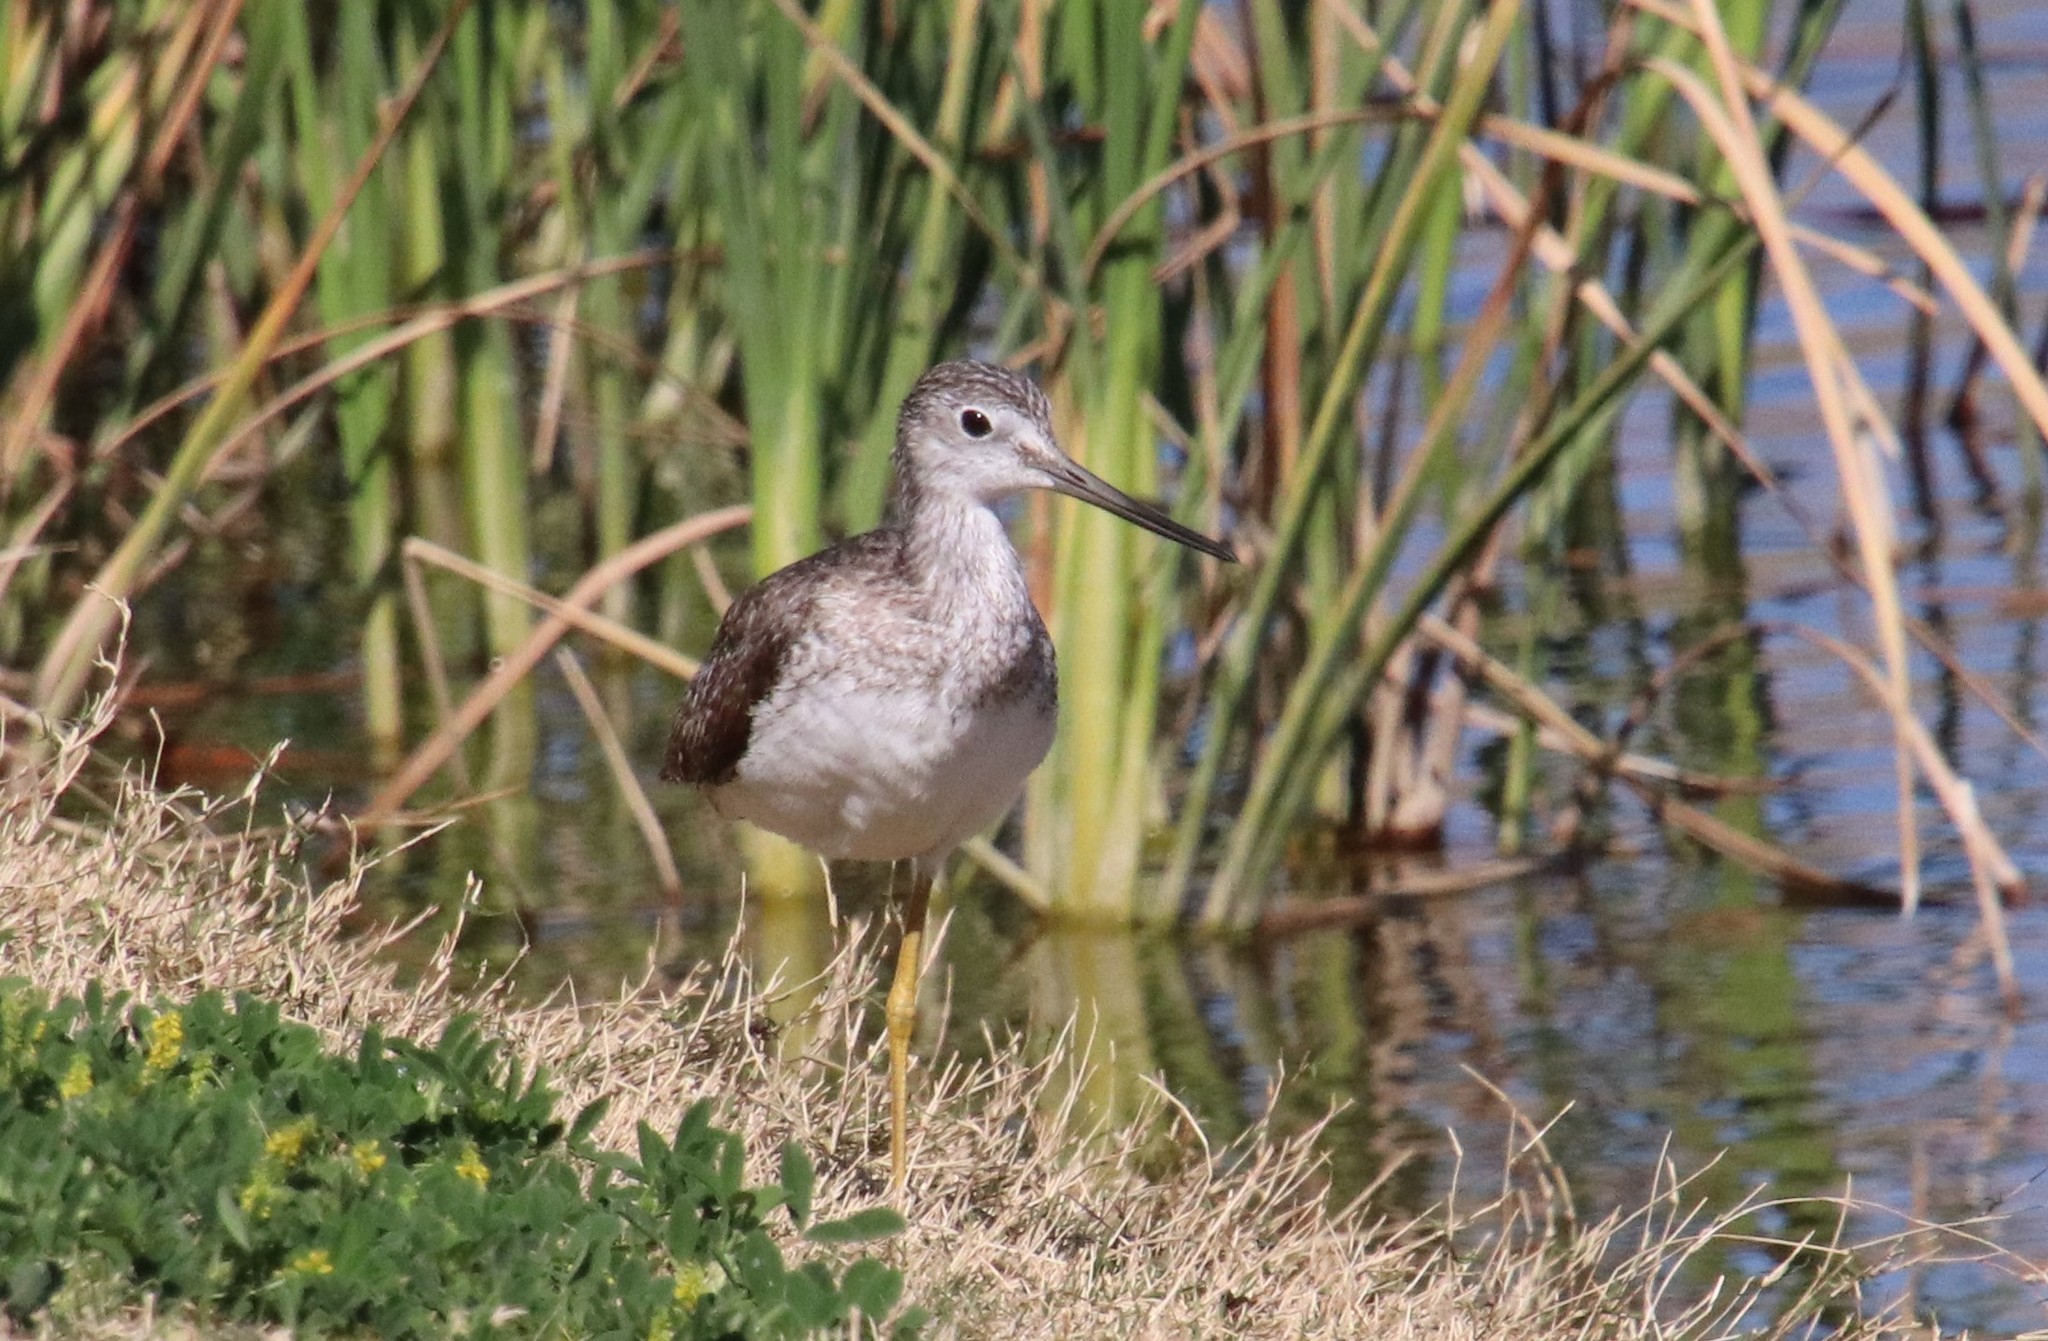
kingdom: Animalia
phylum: Chordata
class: Aves
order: Charadriiformes
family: Scolopacidae
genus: Tringa
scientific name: Tringa melanoleuca
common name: Greater yellowlegs
